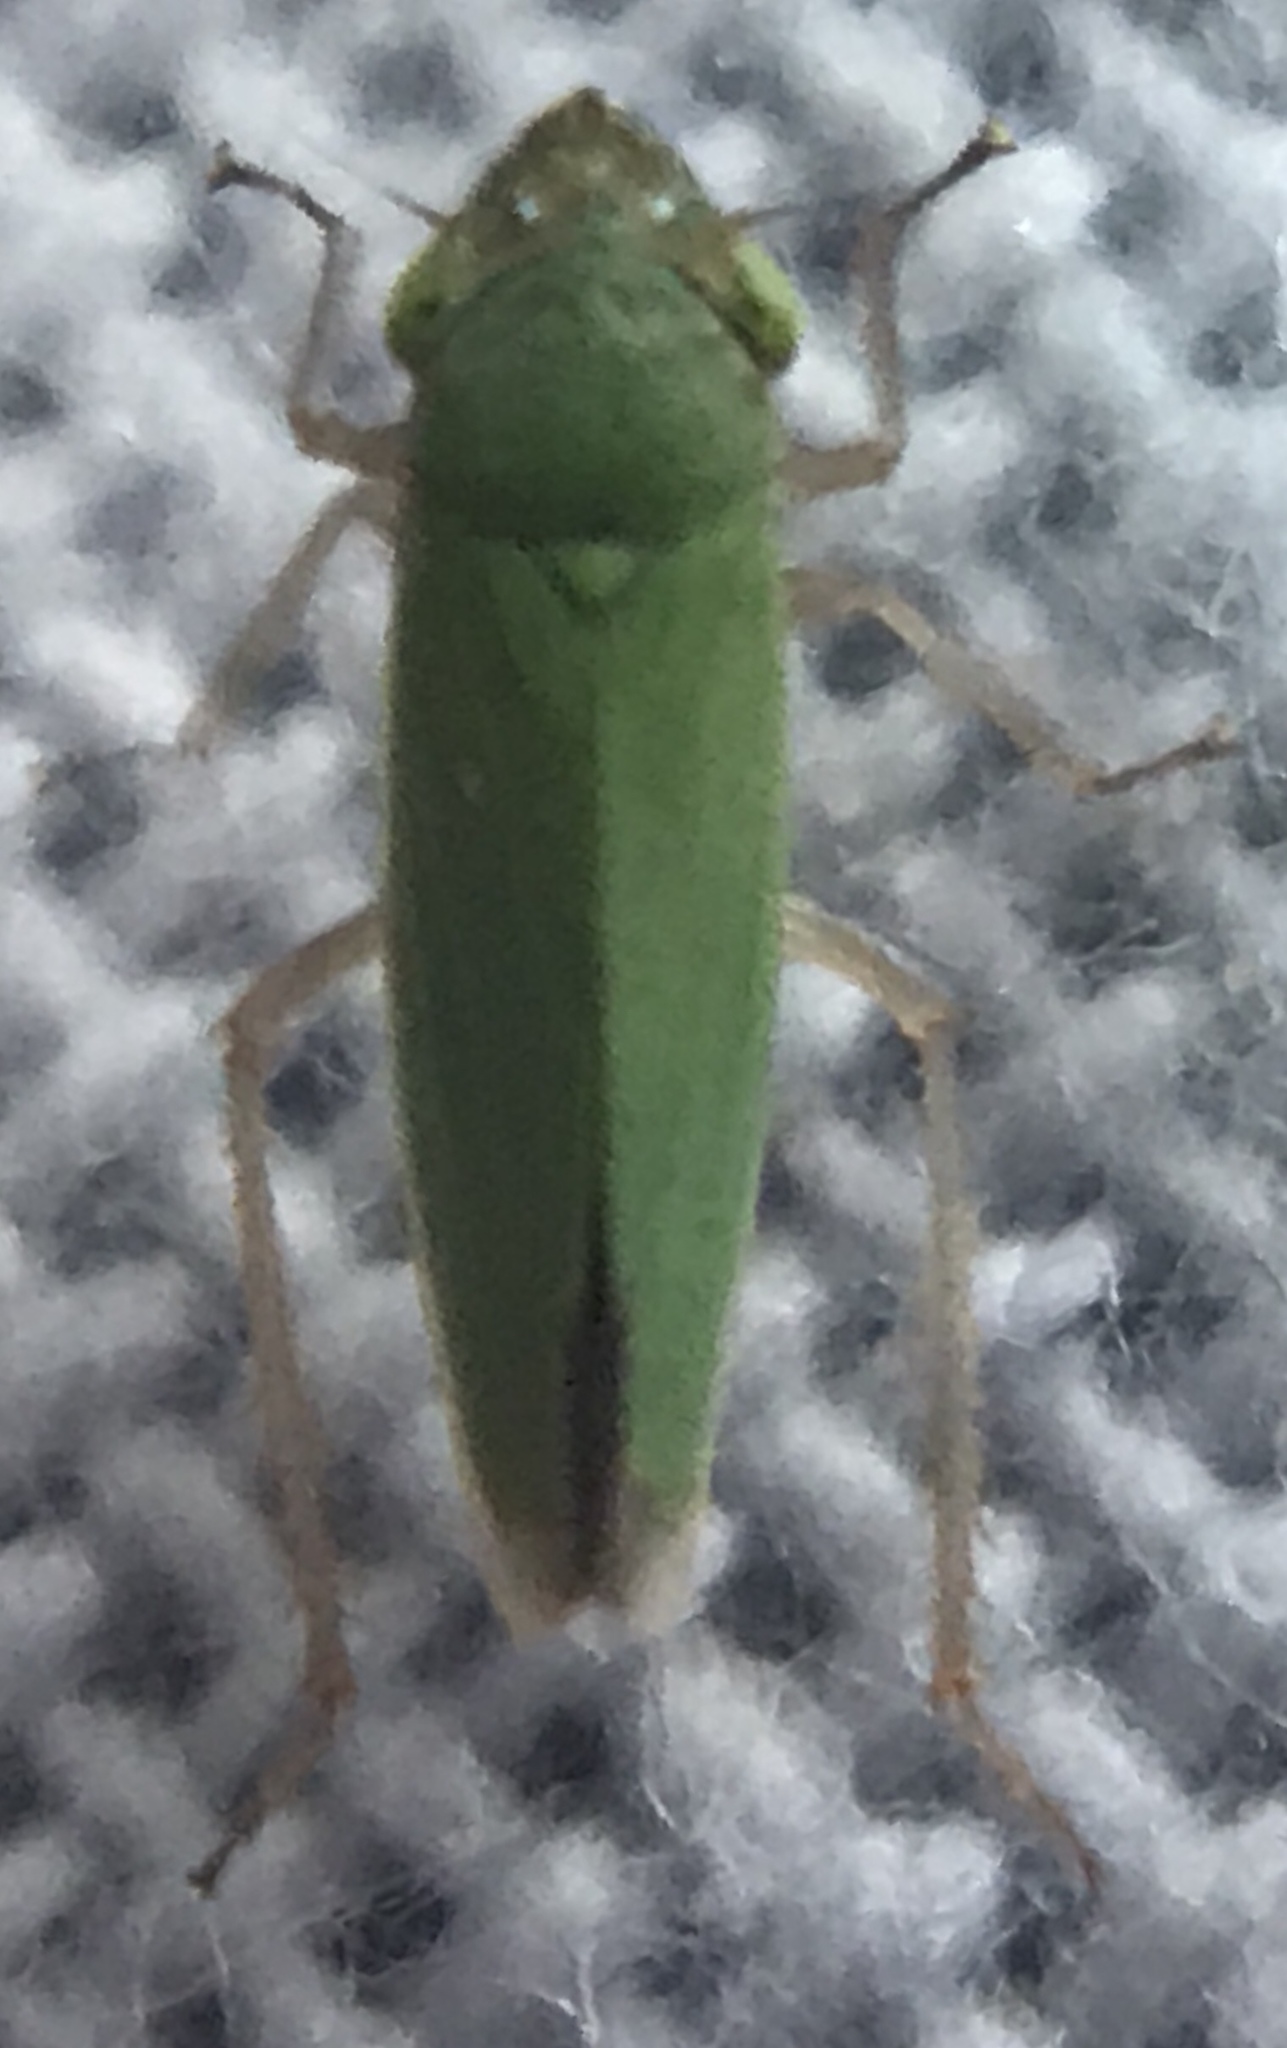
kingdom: Animalia
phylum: Arthropoda
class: Insecta
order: Hemiptera
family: Cicadellidae
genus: Helochara
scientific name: Helochara communis
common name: Bog leafhopper
